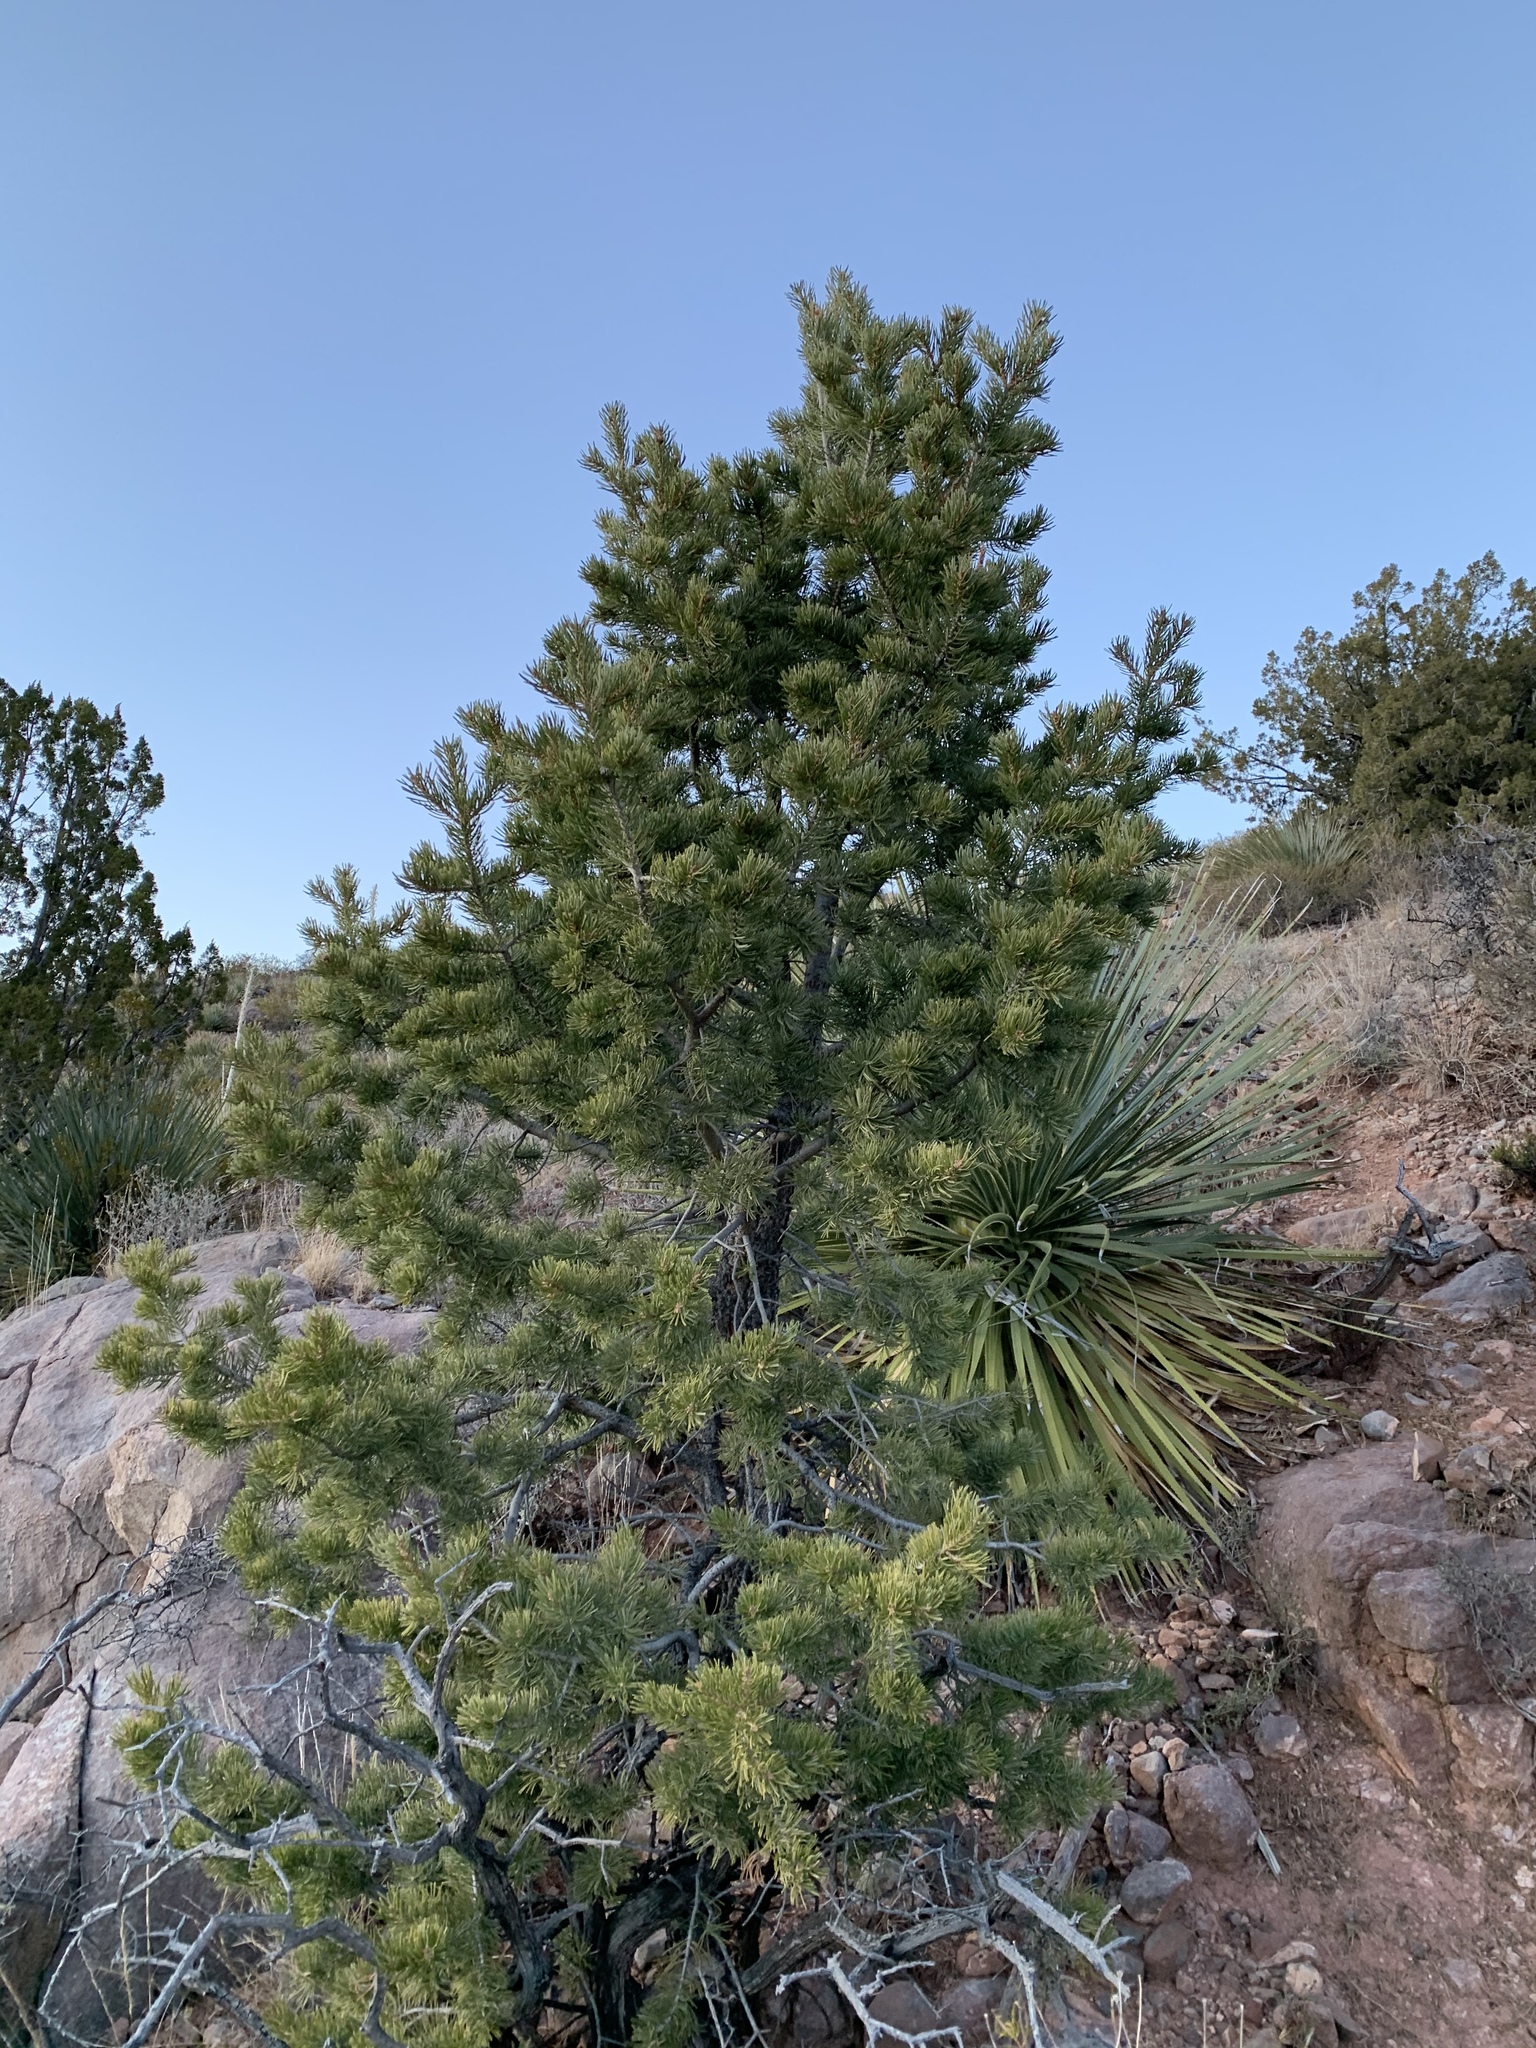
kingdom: Plantae
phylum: Tracheophyta
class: Pinopsida
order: Pinales
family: Pinaceae
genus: Pinus
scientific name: Pinus edulis
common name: Colorado pinyon
